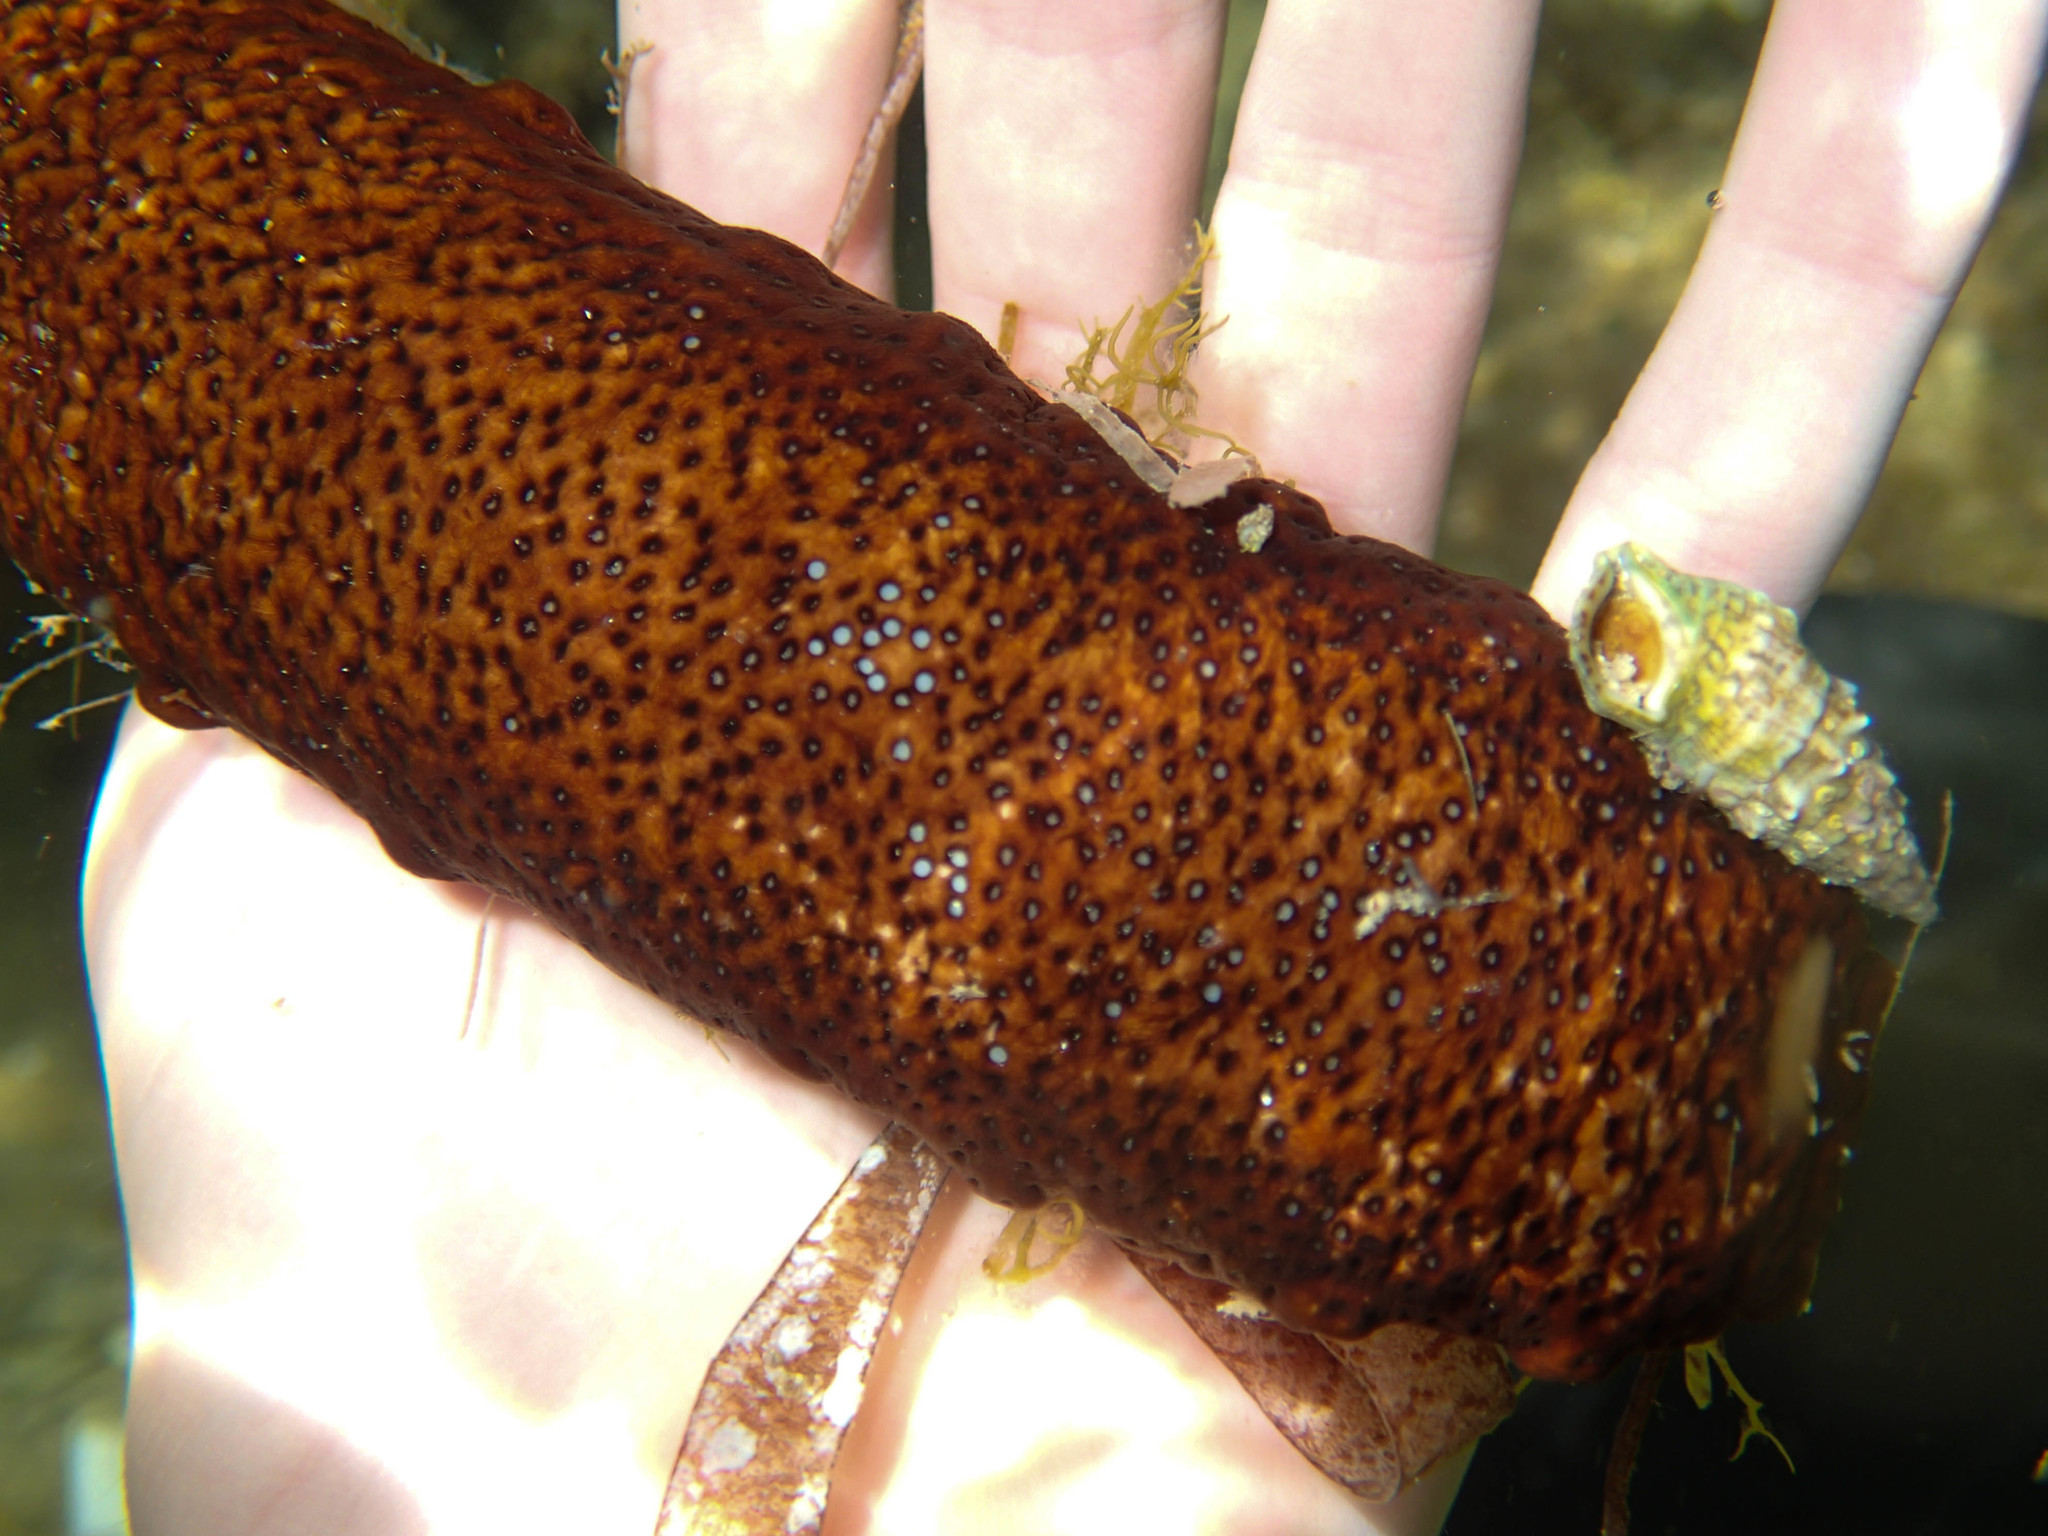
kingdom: Animalia
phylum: Echinodermata
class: Holothuroidea
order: Holothuriida
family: Holothuriidae
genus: Holothuria
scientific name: Holothuria poli
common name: White spot cucumber
